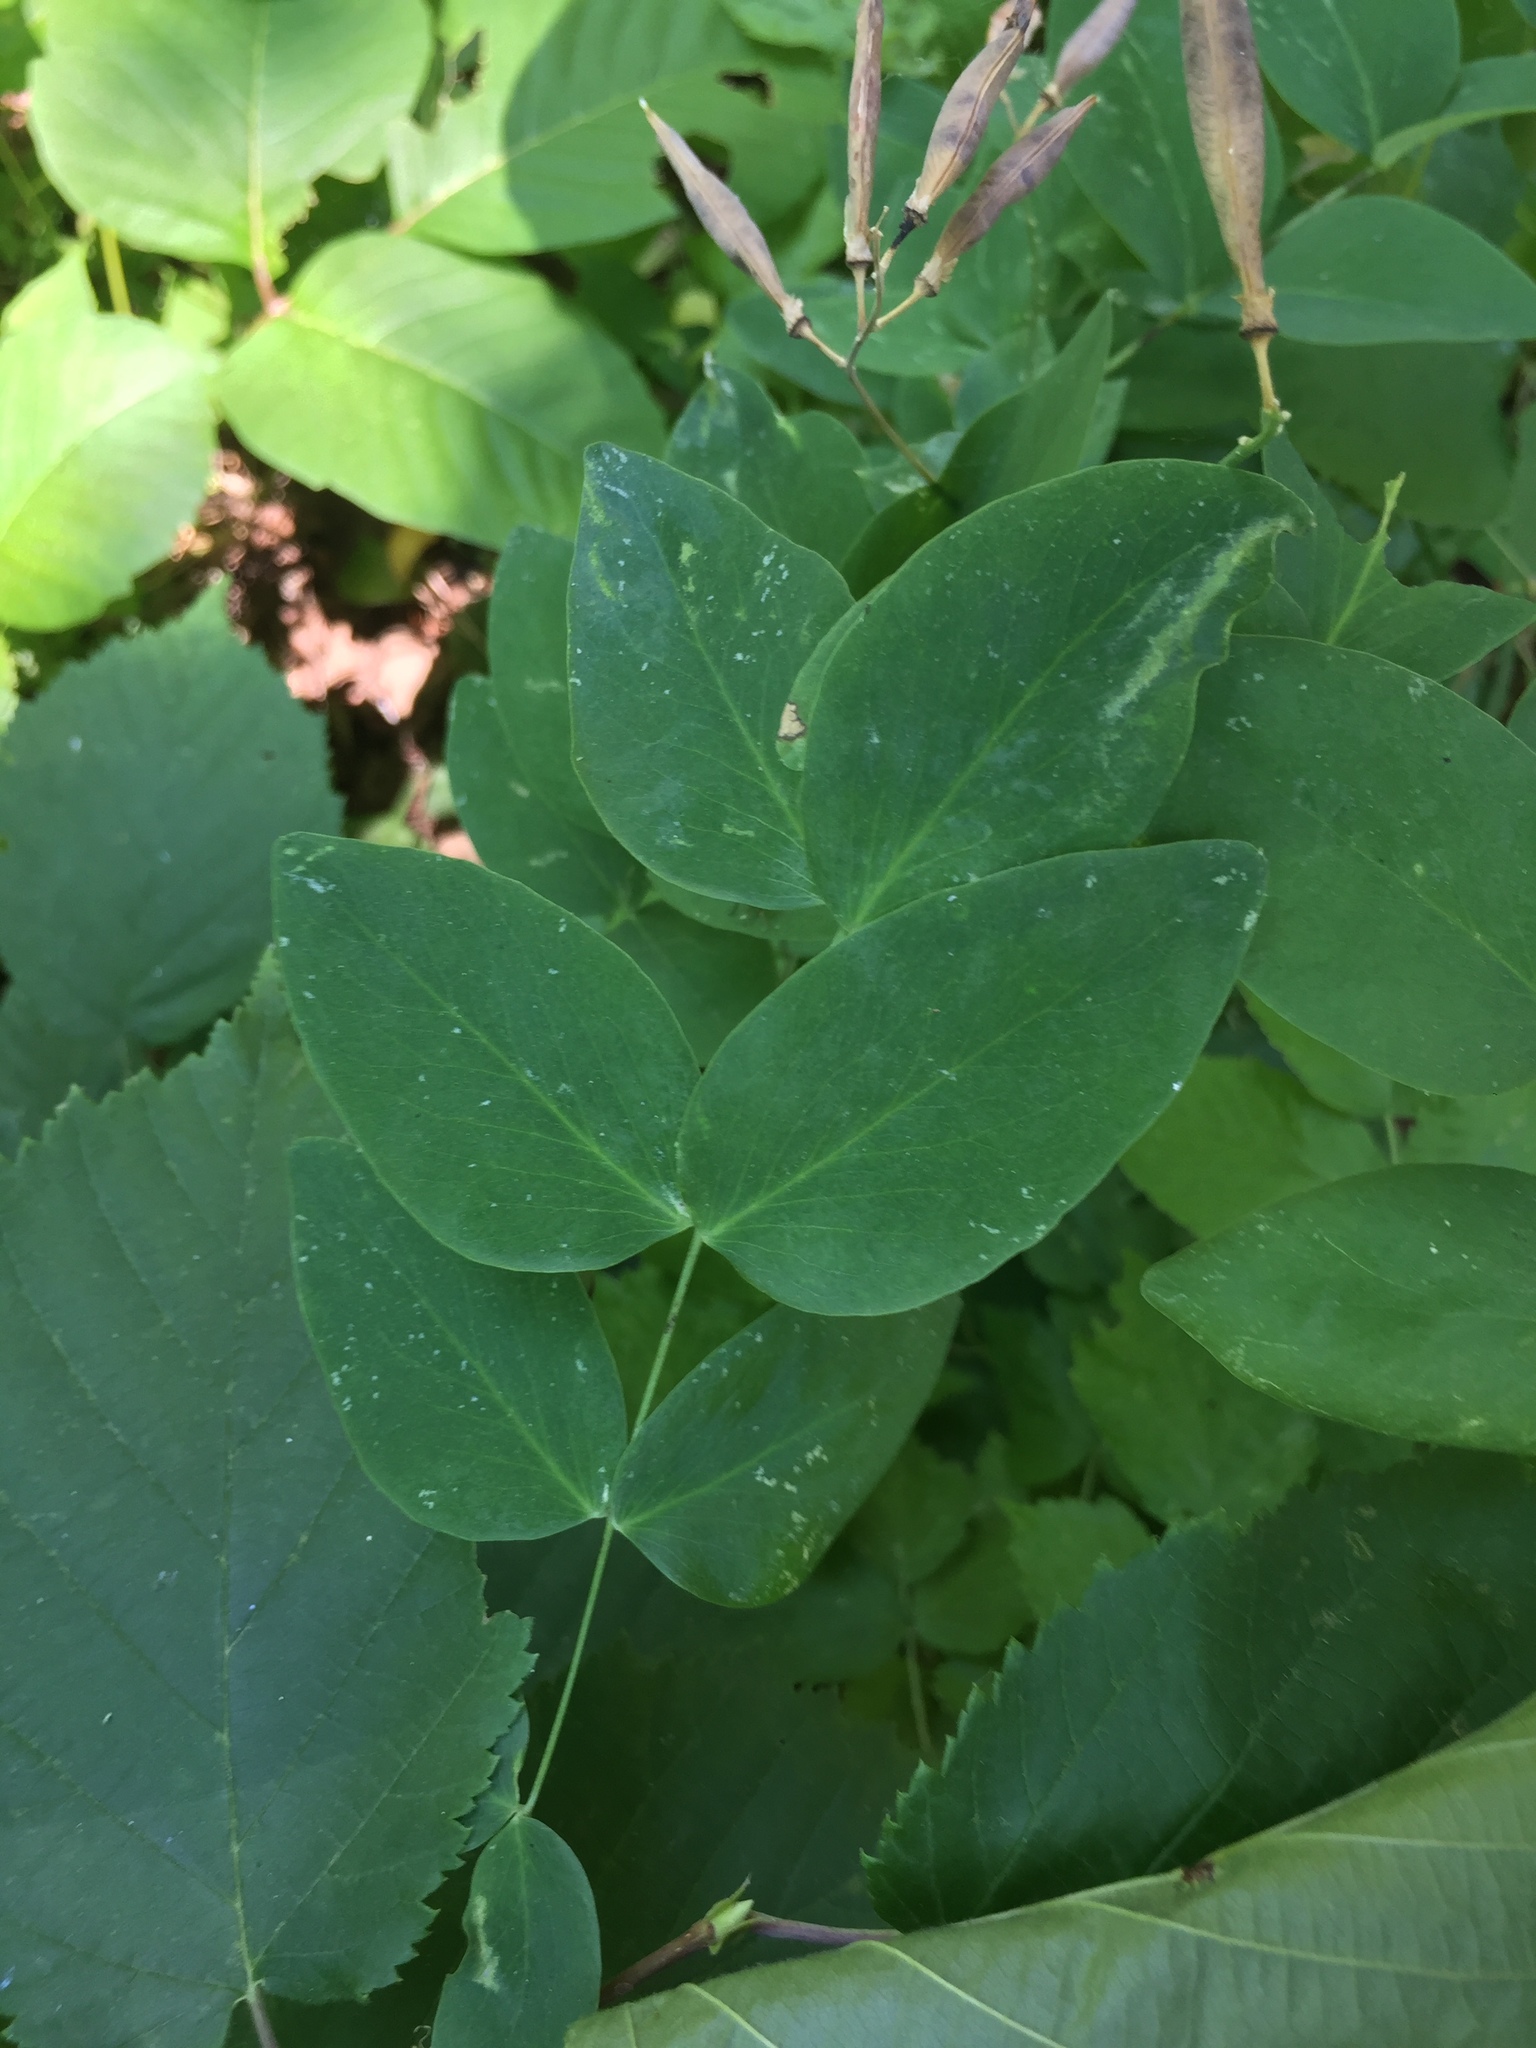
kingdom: Plantae
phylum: Tracheophyta
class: Magnoliopsida
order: Fabales
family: Fabaceae
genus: Lathyrus
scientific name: Lathyrus ochroleucus
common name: Pale vetchling
